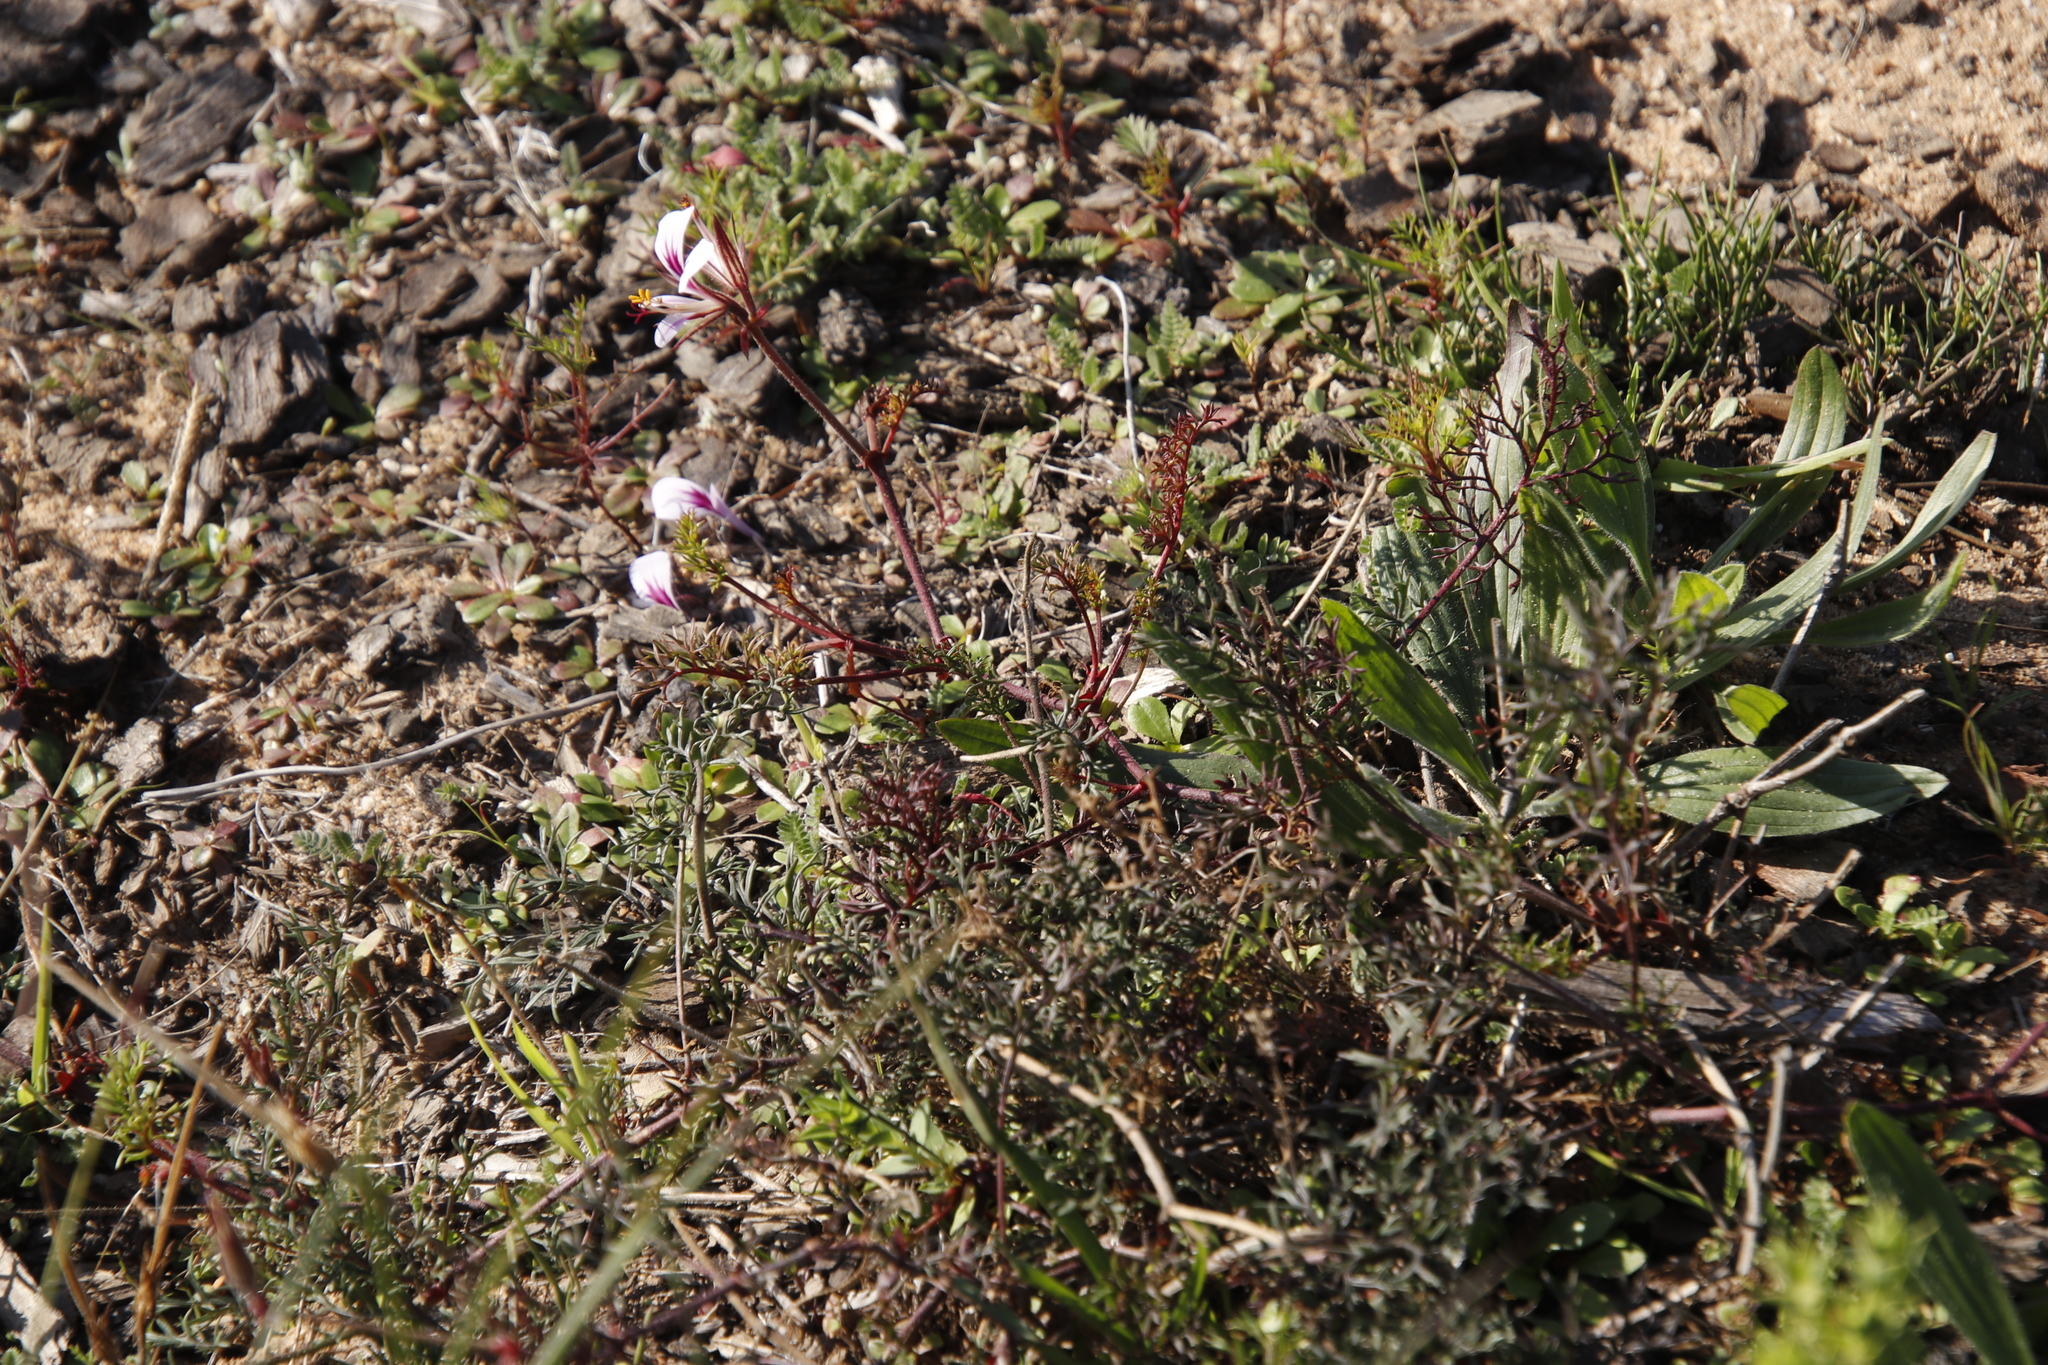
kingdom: Plantae
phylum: Tracheophyta
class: Magnoliopsida
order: Geraniales
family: Geraniaceae
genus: Pelargonium
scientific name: Pelargonium myrrhifolium
